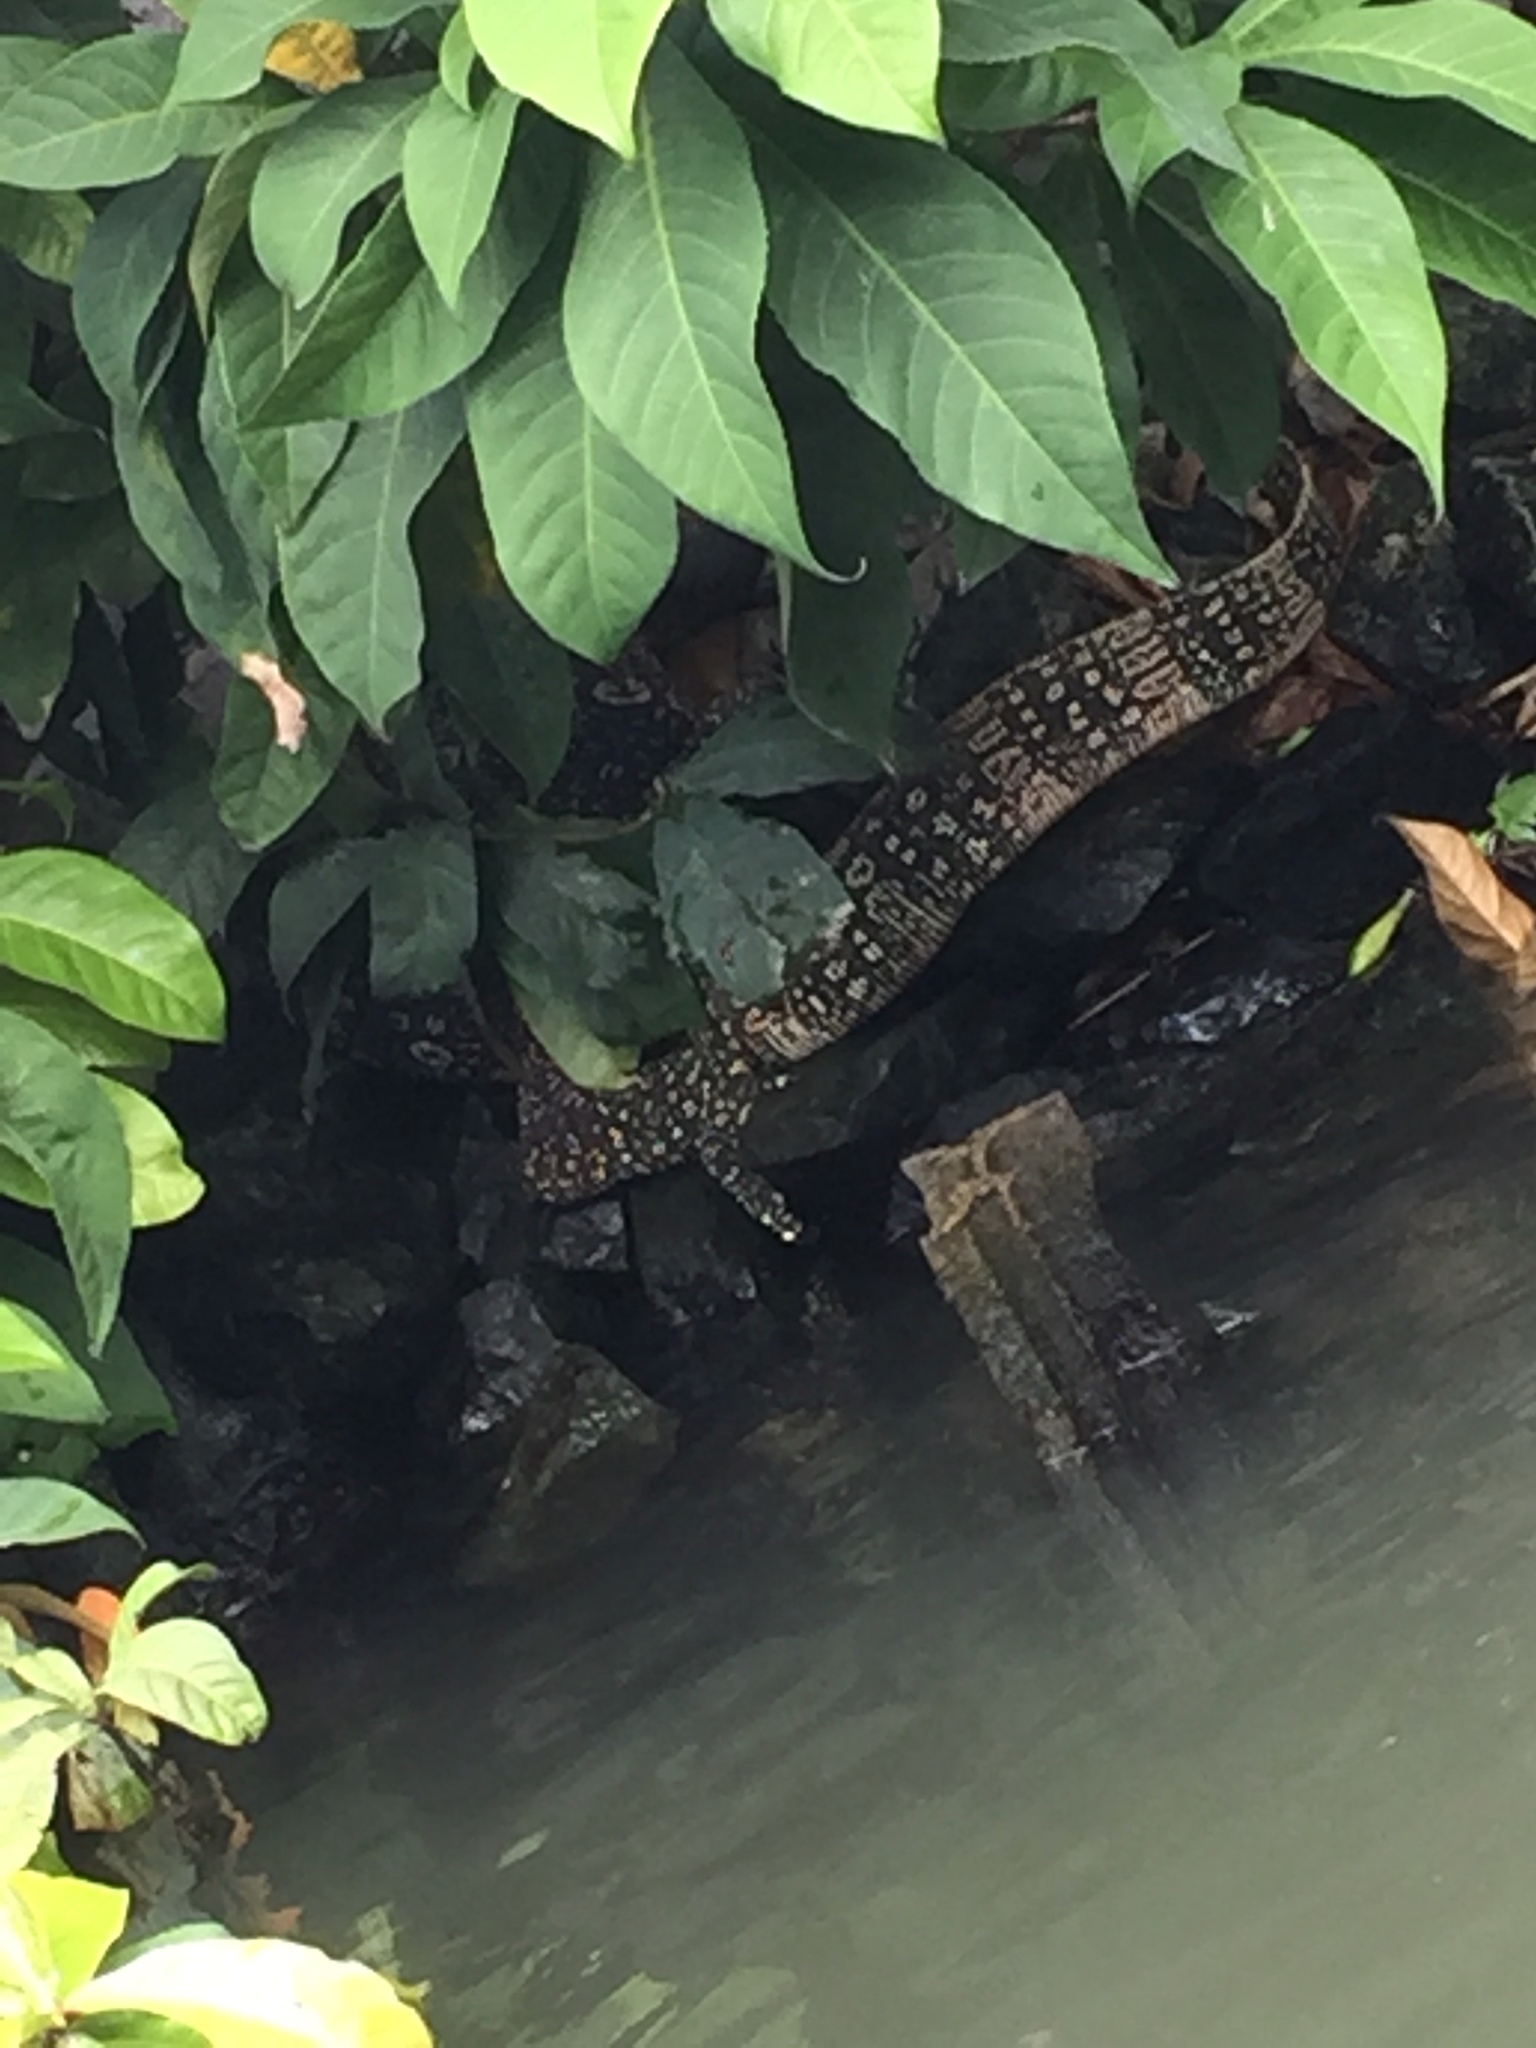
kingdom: Animalia
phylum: Chordata
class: Squamata
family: Varanidae
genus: Varanus
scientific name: Varanus salvator
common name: Common water monitor
